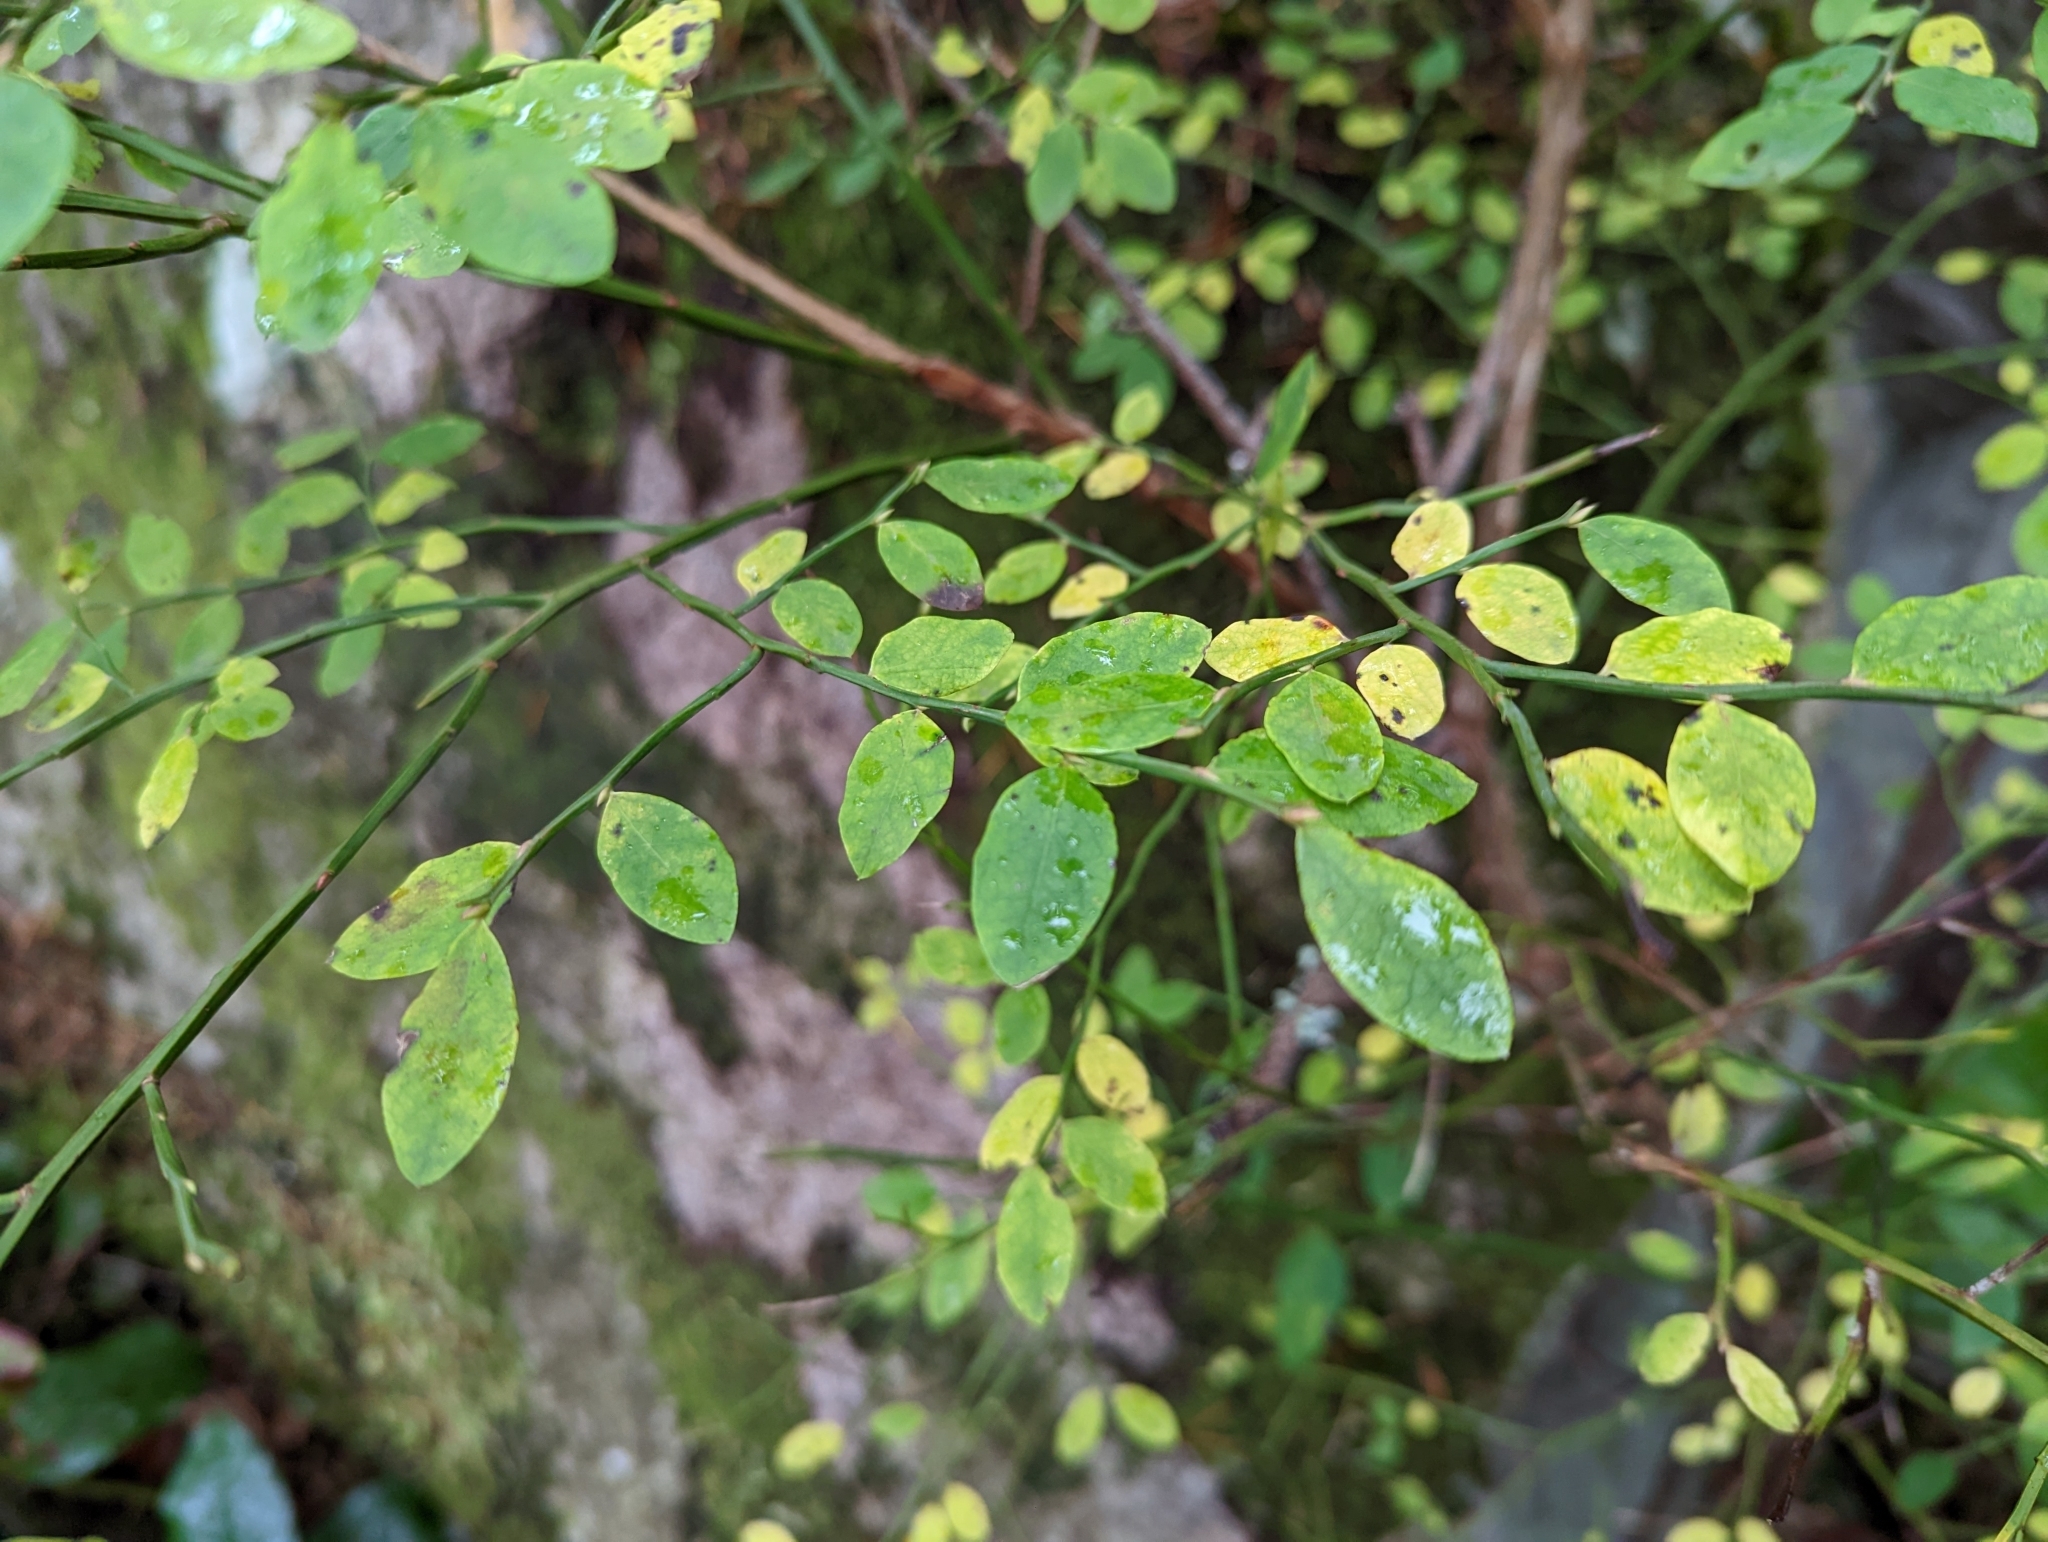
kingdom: Plantae
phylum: Tracheophyta
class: Magnoliopsida
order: Ericales
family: Ericaceae
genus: Vaccinium
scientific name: Vaccinium parvifolium
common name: Red-huckleberry
